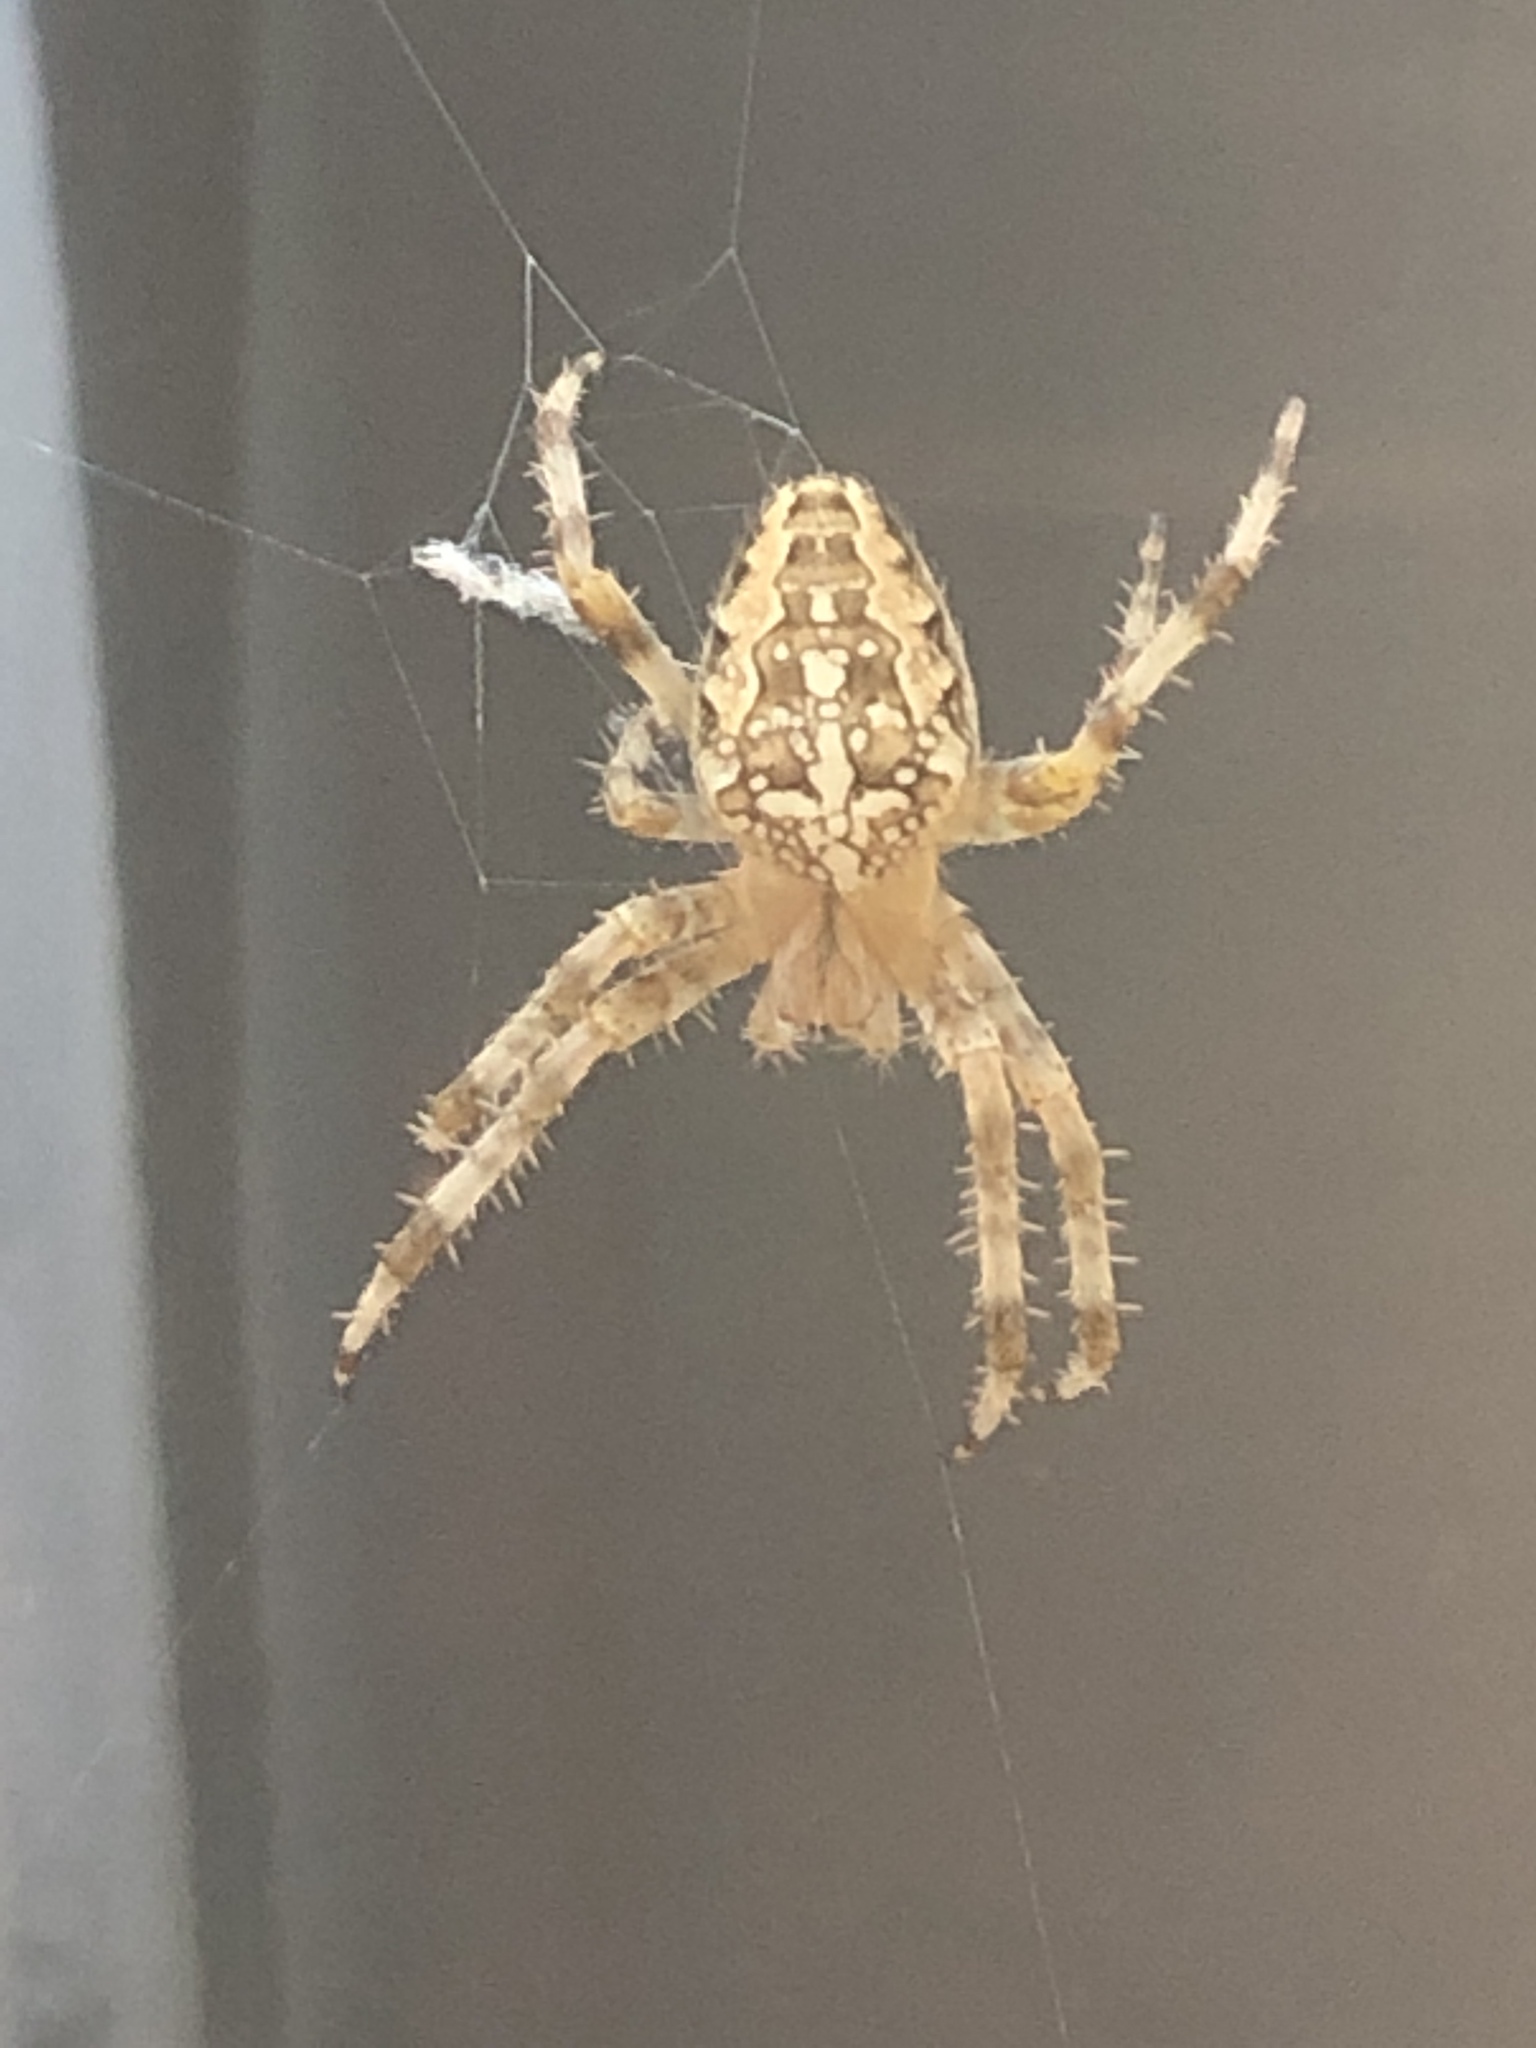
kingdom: Animalia
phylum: Arthropoda
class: Arachnida
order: Araneae
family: Araneidae
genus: Araneus
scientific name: Araneus diadematus
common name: Cross orbweaver
